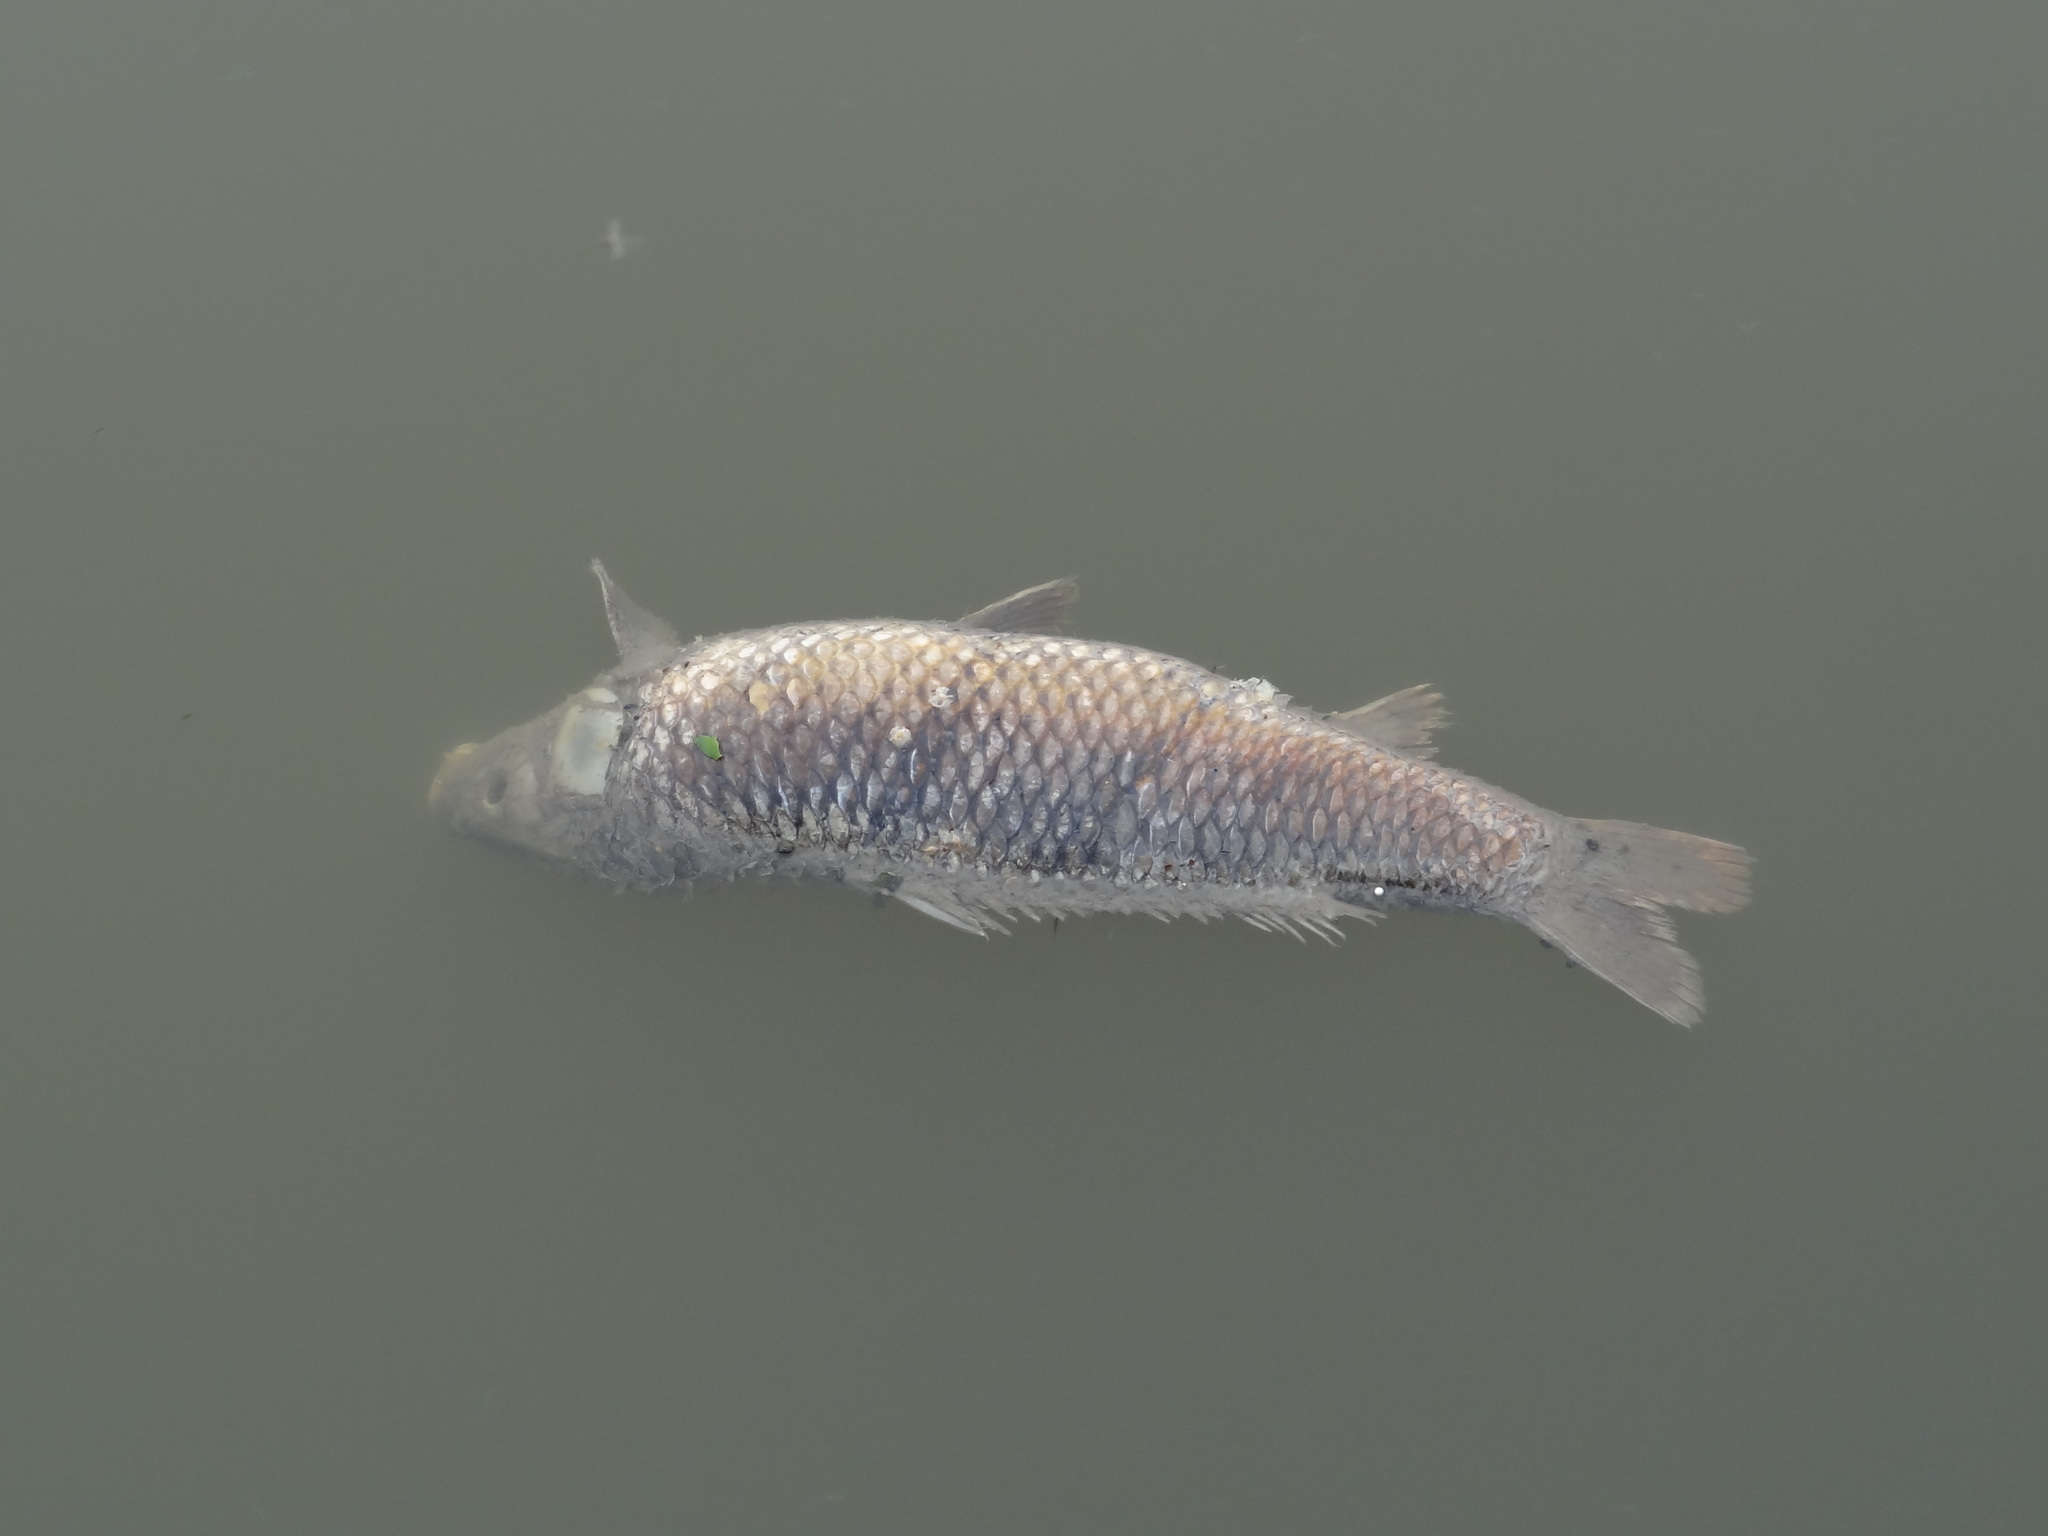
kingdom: Animalia
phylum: Chordata
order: Cypriniformes
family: Cyprinidae
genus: Cyprinus
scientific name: Cyprinus carpio
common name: Common carp
